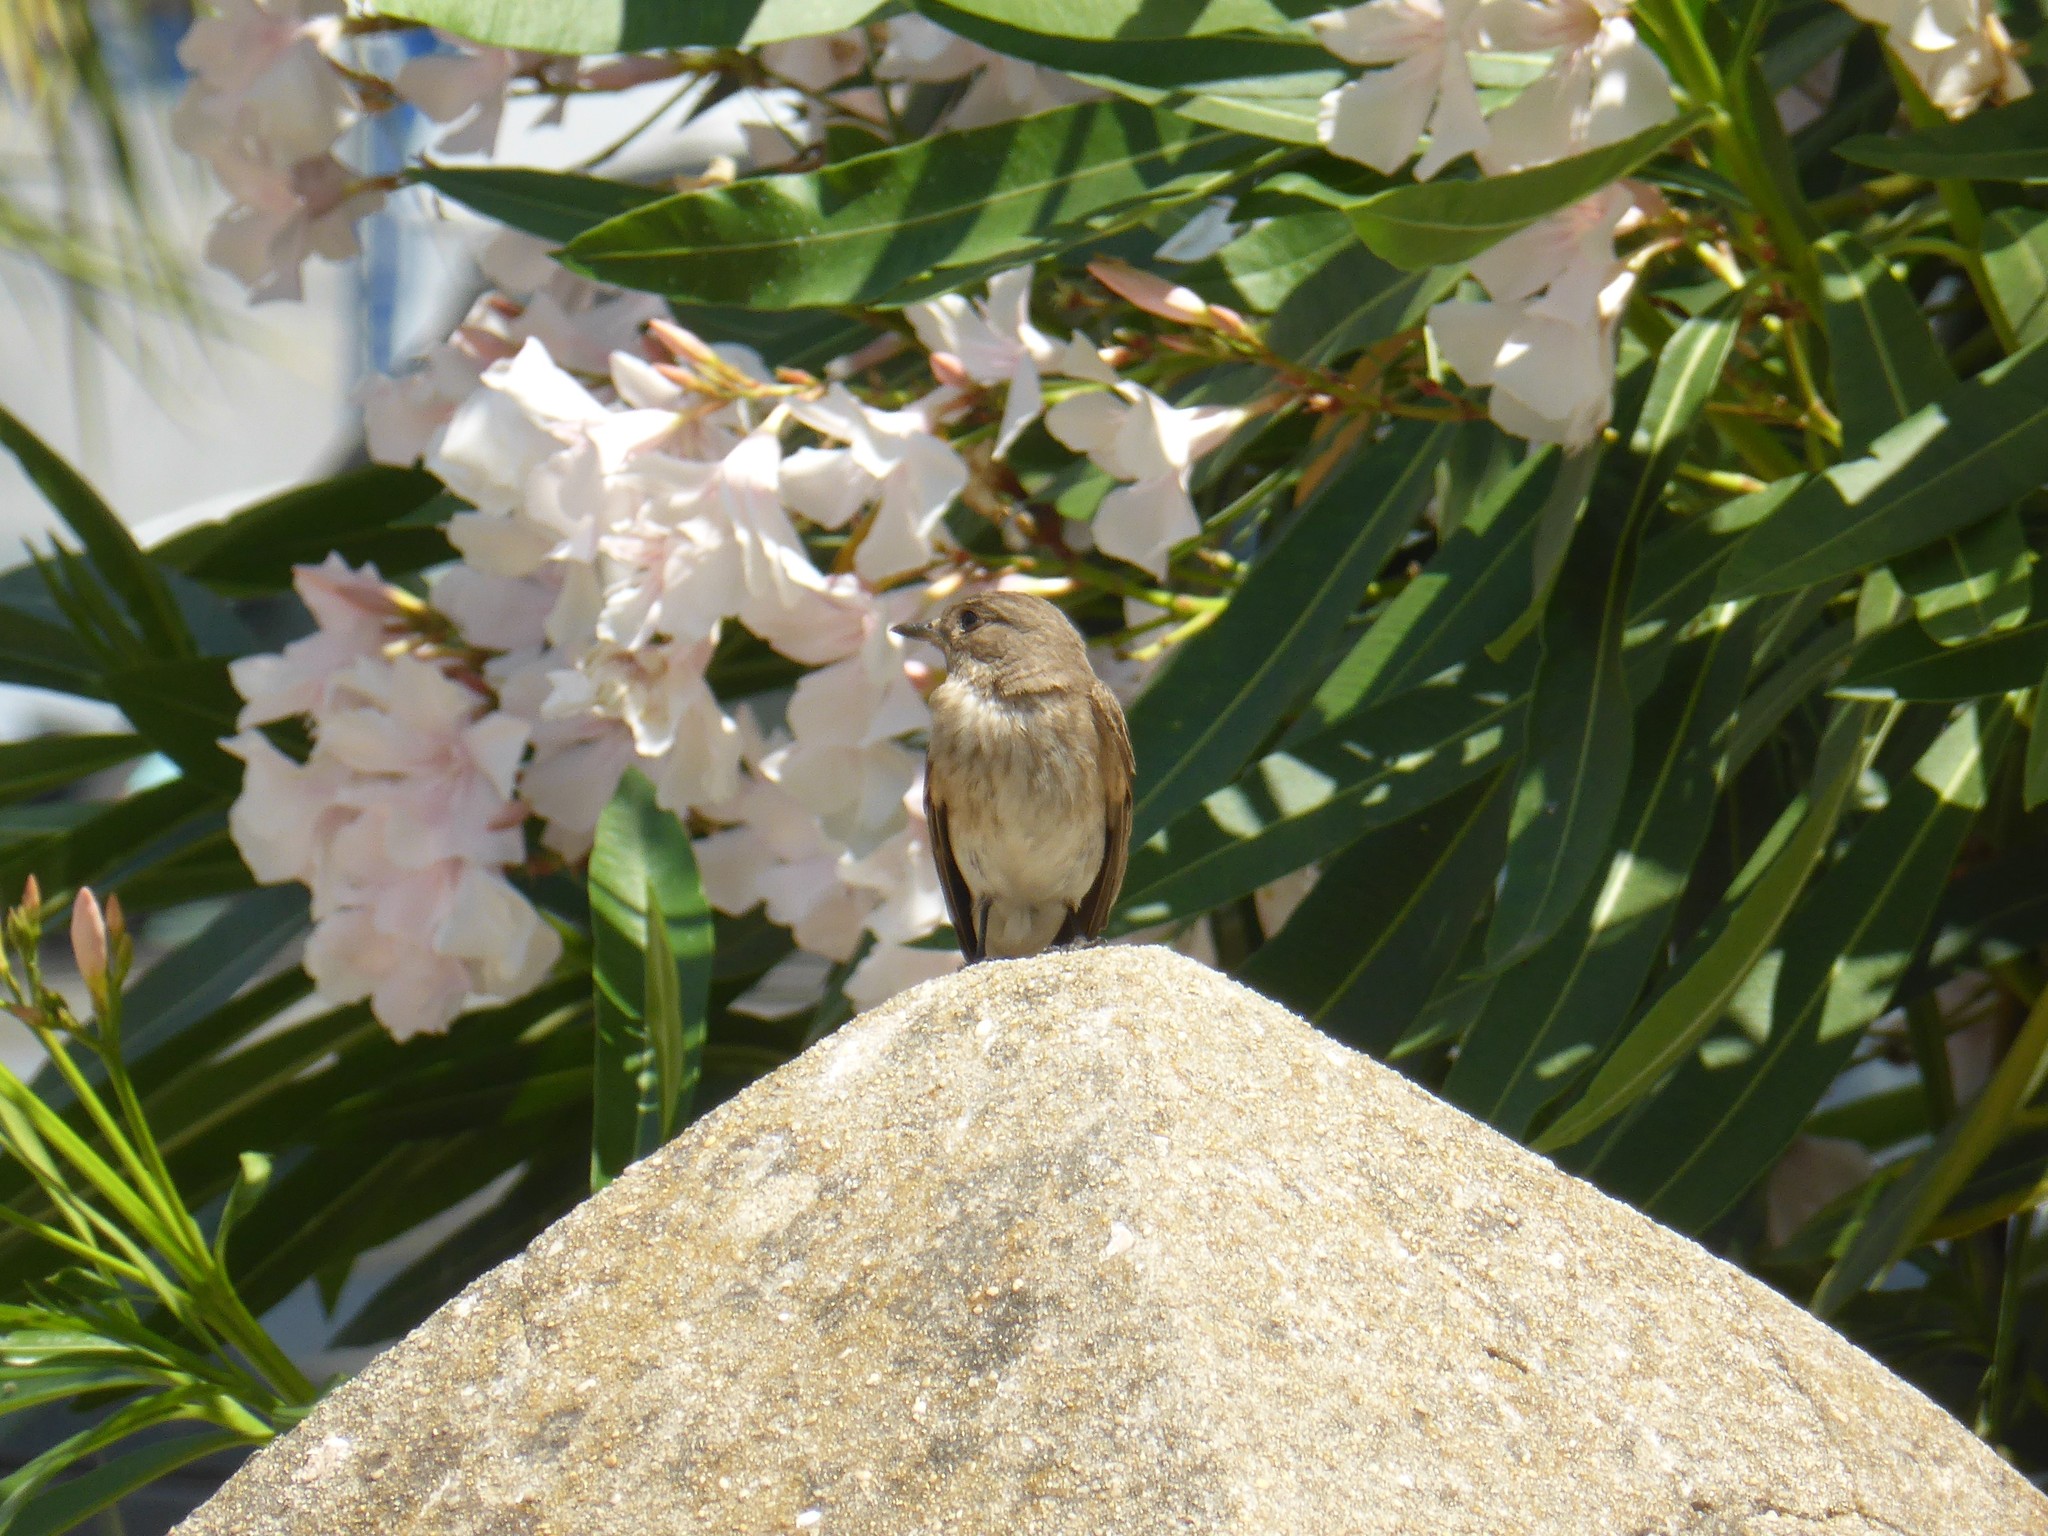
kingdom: Animalia
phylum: Chordata
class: Aves
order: Passeriformes
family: Muscicapidae
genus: Muscicapa
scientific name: Muscicapa striata
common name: Spotted flycatcher
